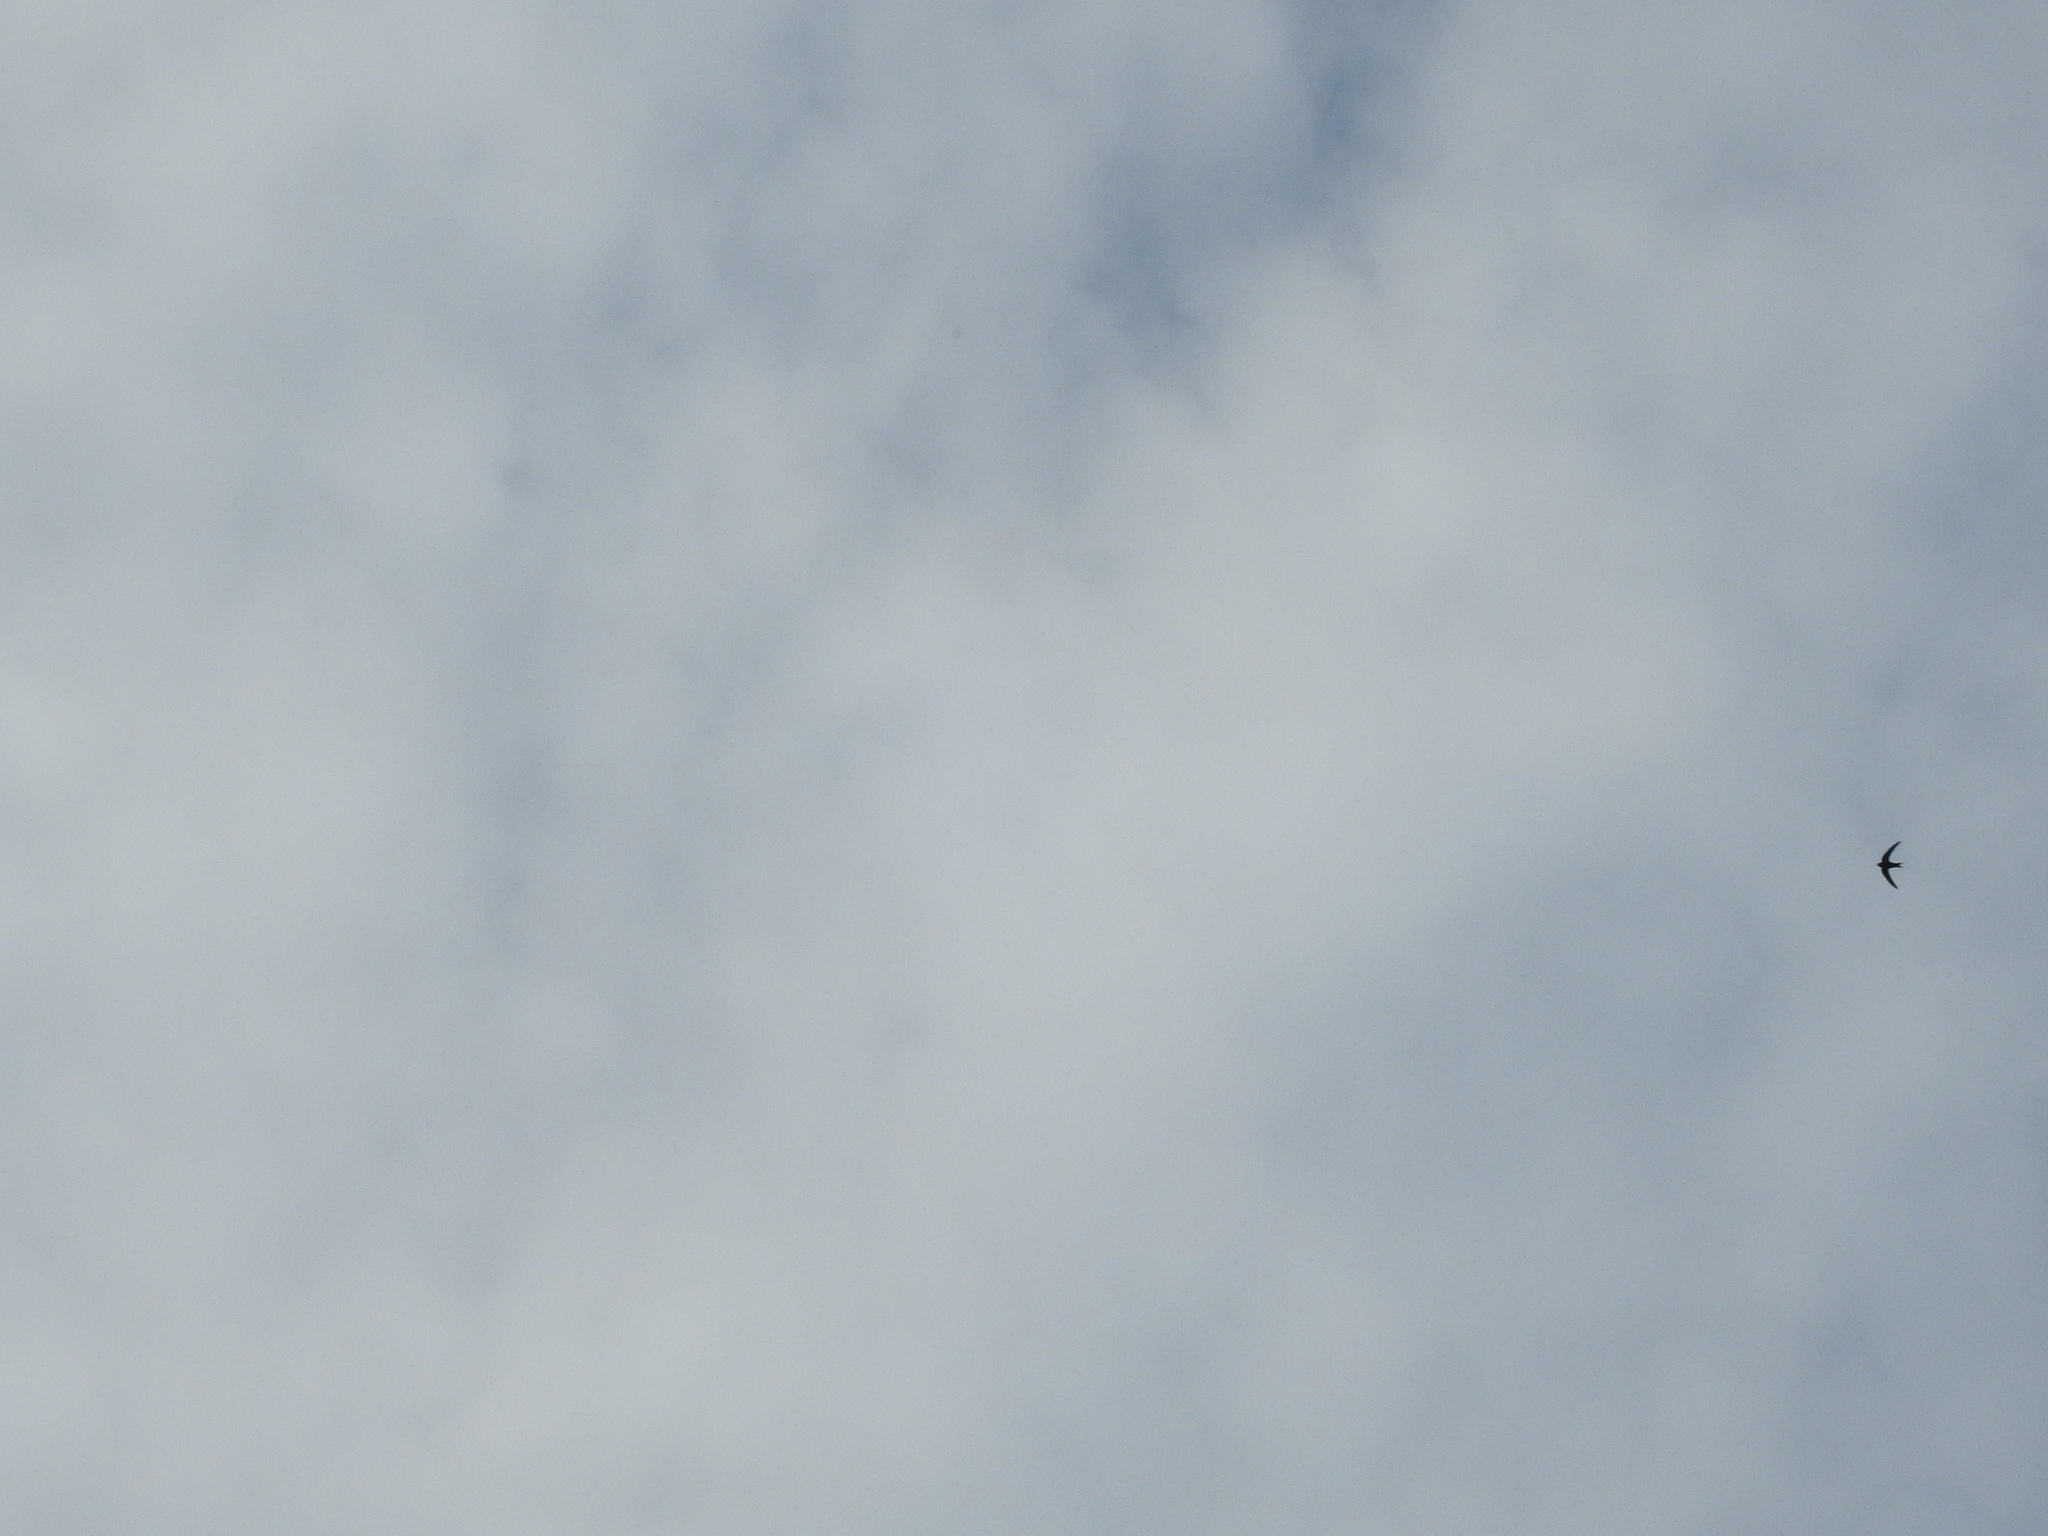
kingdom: Animalia
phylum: Chordata
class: Aves
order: Apodiformes
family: Apodidae
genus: Apus
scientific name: Apus apus
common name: Common swift
